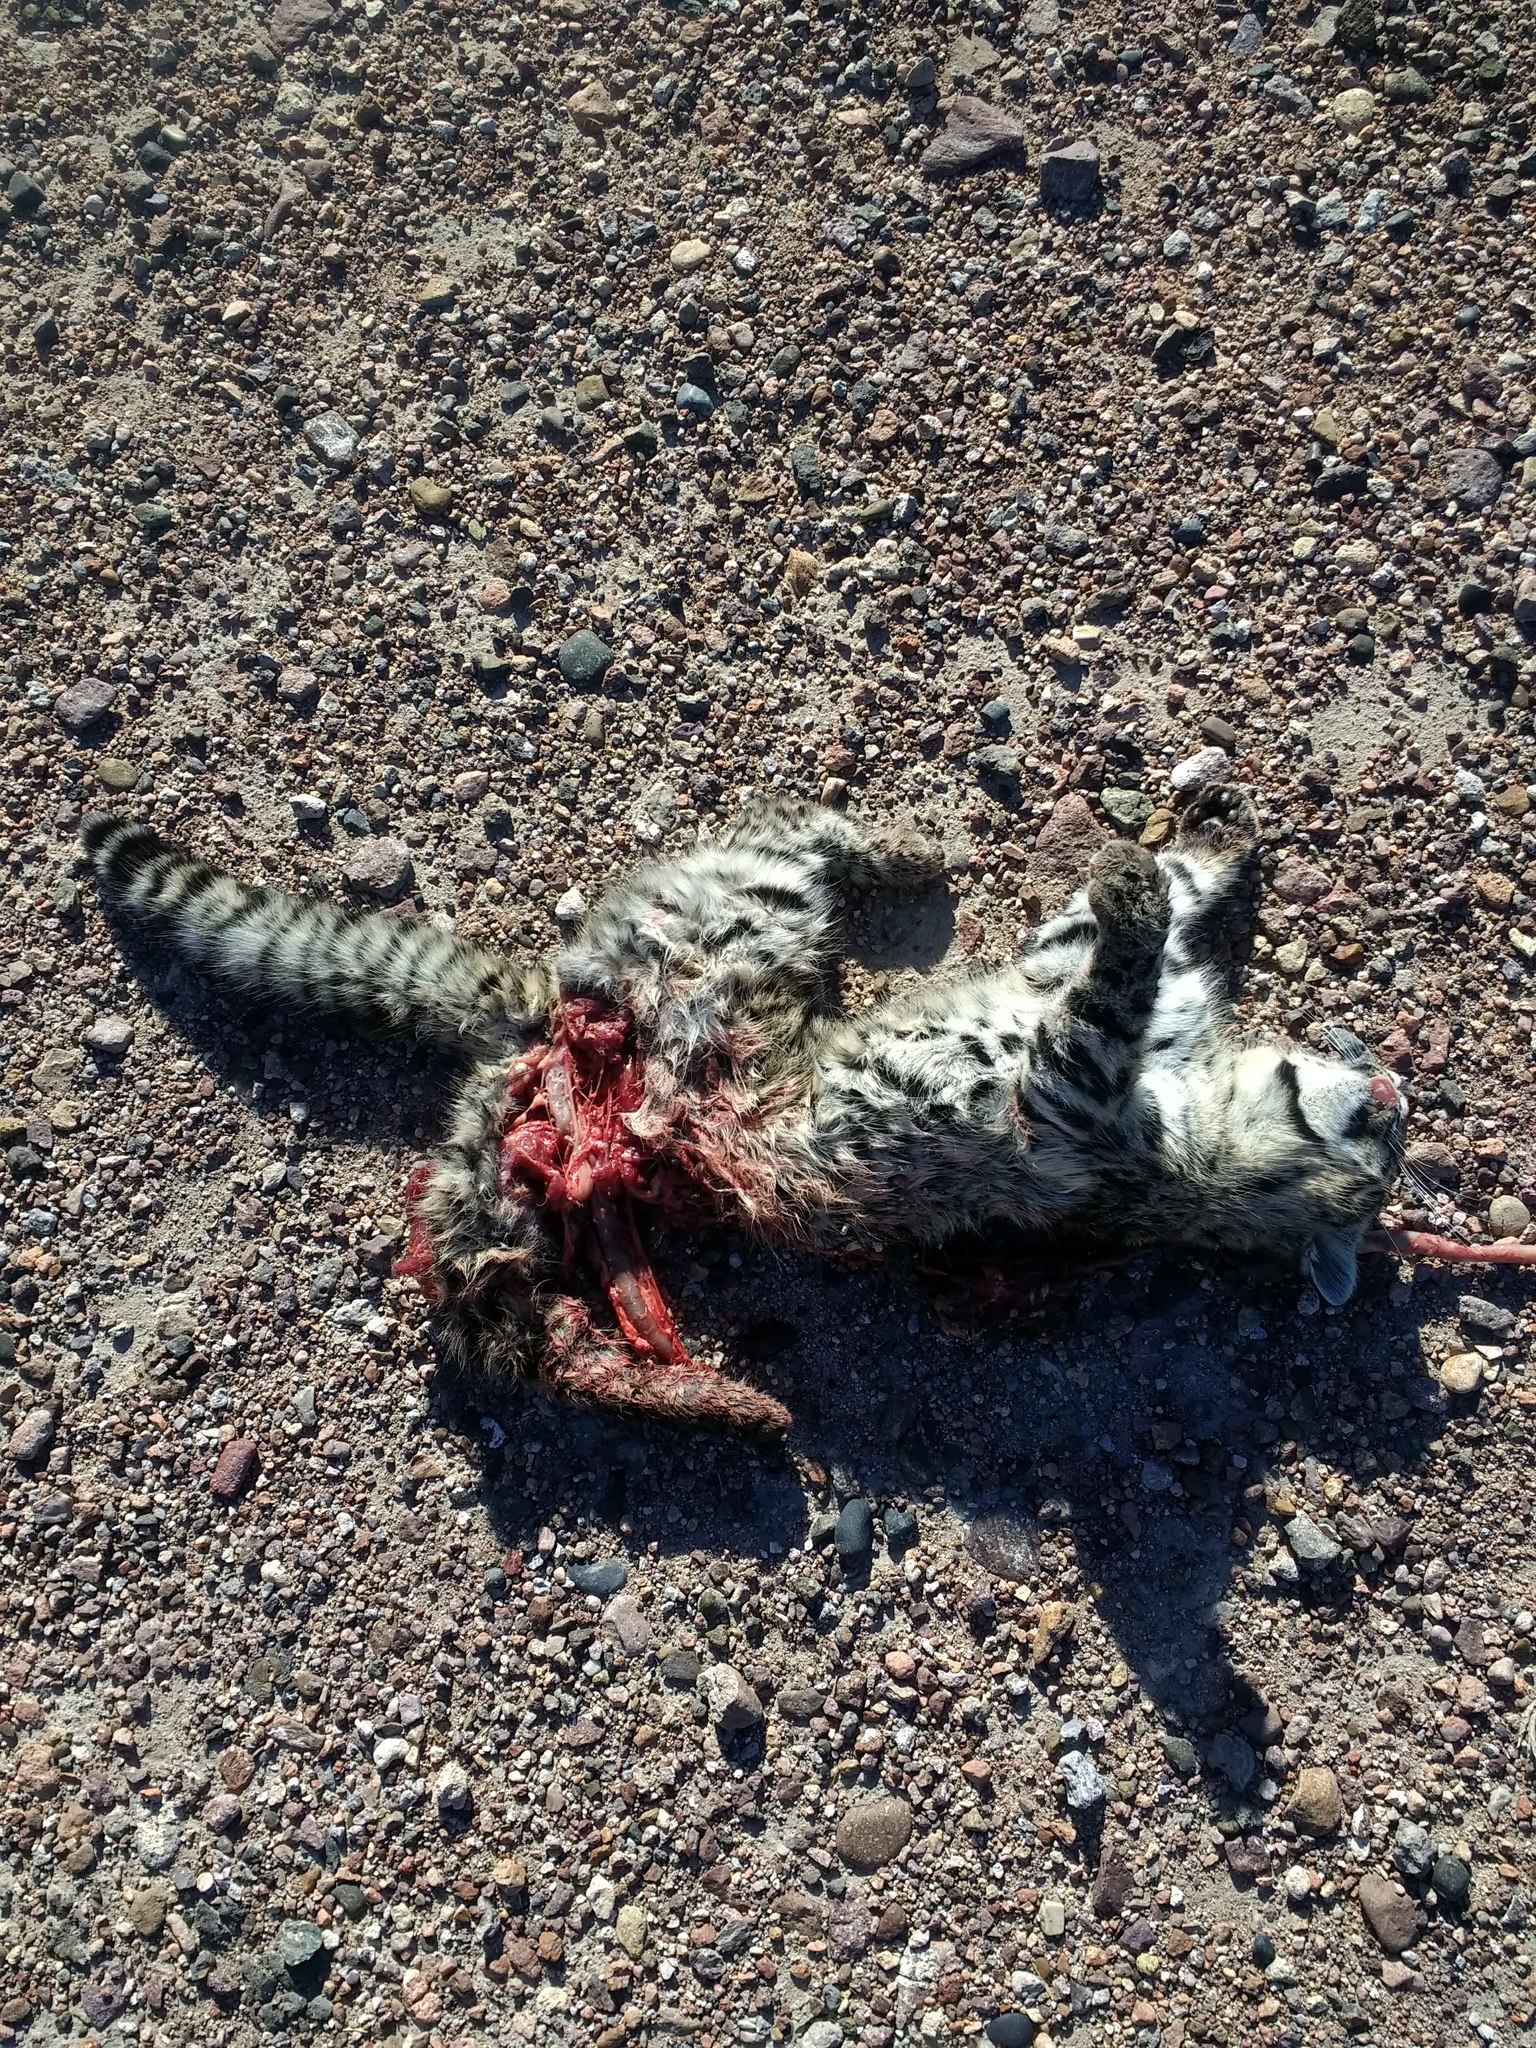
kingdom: Animalia
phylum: Chordata
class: Mammalia
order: Carnivora
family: Felidae
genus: Leopardus
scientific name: Leopardus geoffroyi
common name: Geoffroy's cat
